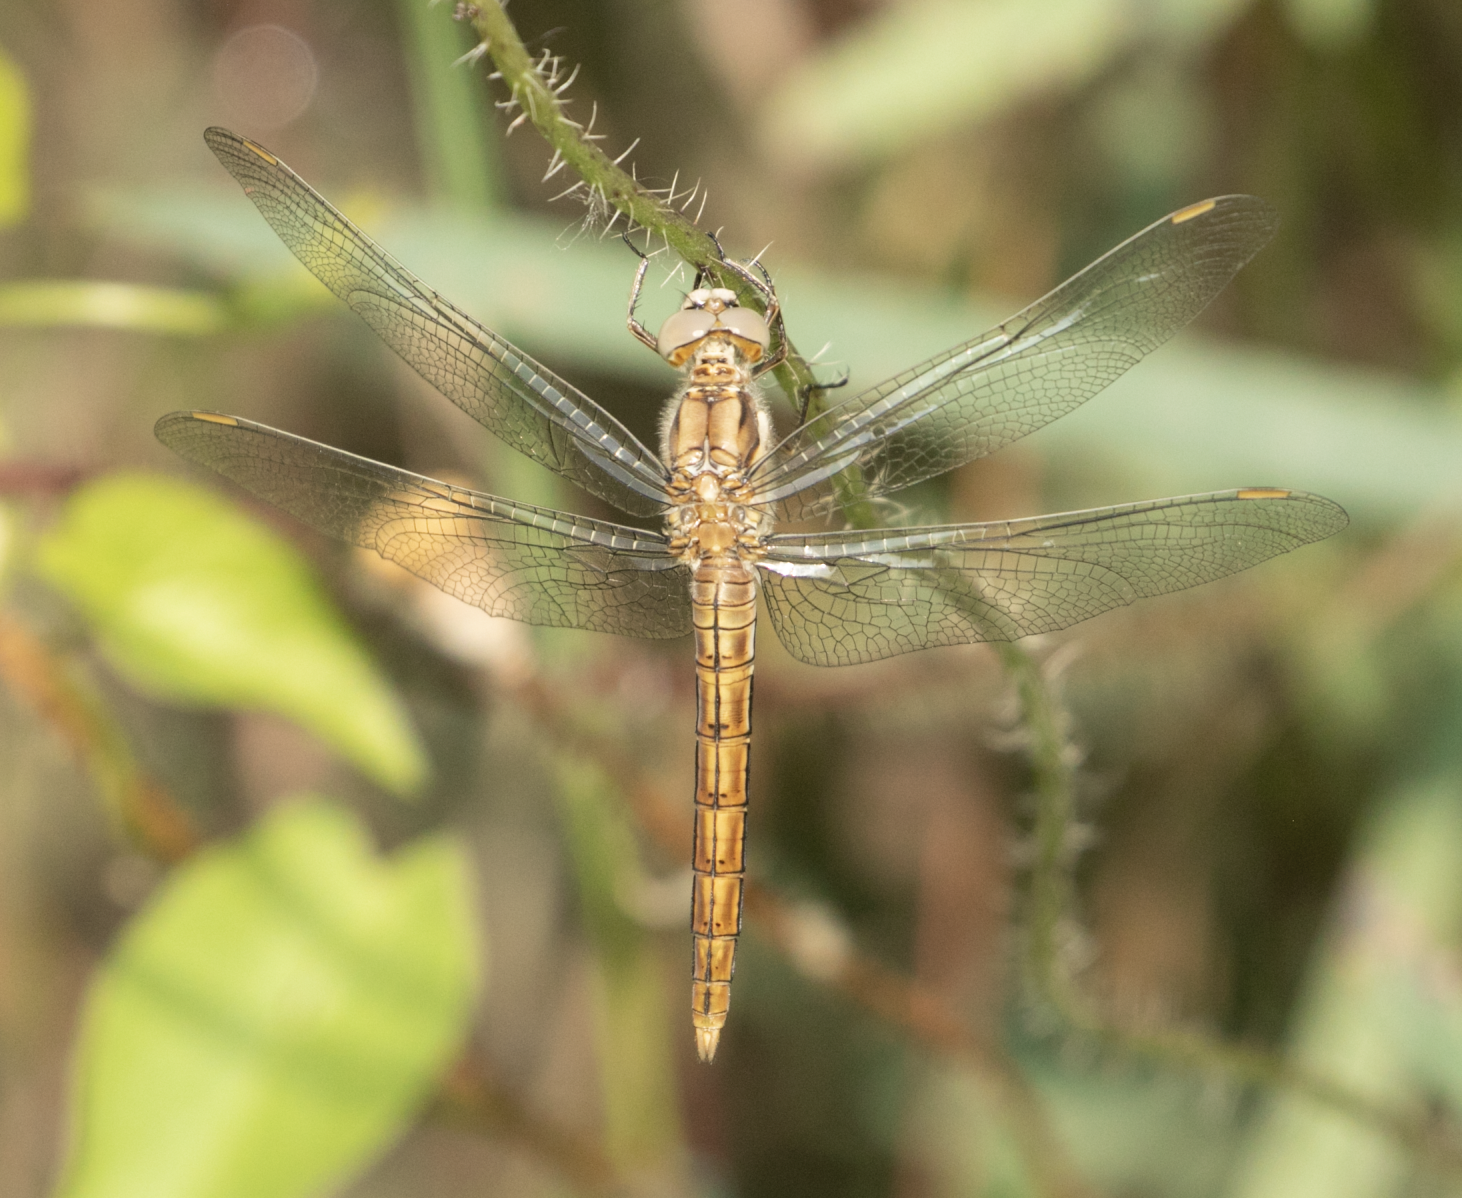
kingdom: Animalia
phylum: Arthropoda
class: Insecta
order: Odonata
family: Libellulidae
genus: Orthetrum
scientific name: Orthetrum brunneum
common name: Southern skimmer
